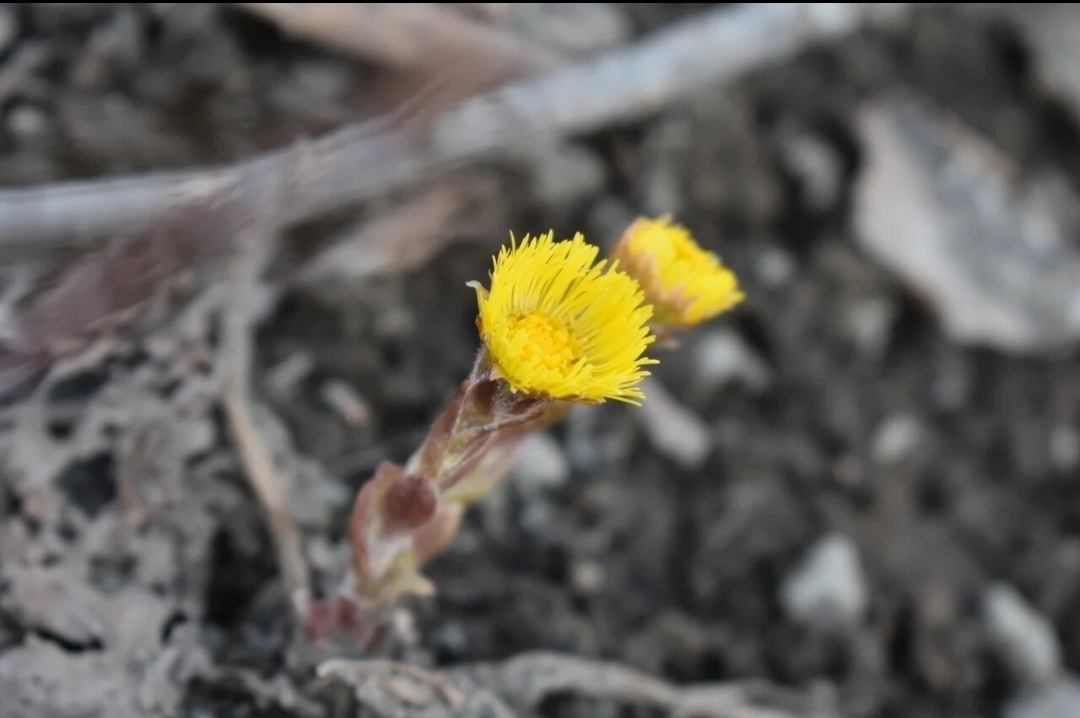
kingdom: Plantae
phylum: Tracheophyta
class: Magnoliopsida
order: Asterales
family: Asteraceae
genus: Tussilago
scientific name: Tussilago farfara
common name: Coltsfoot
